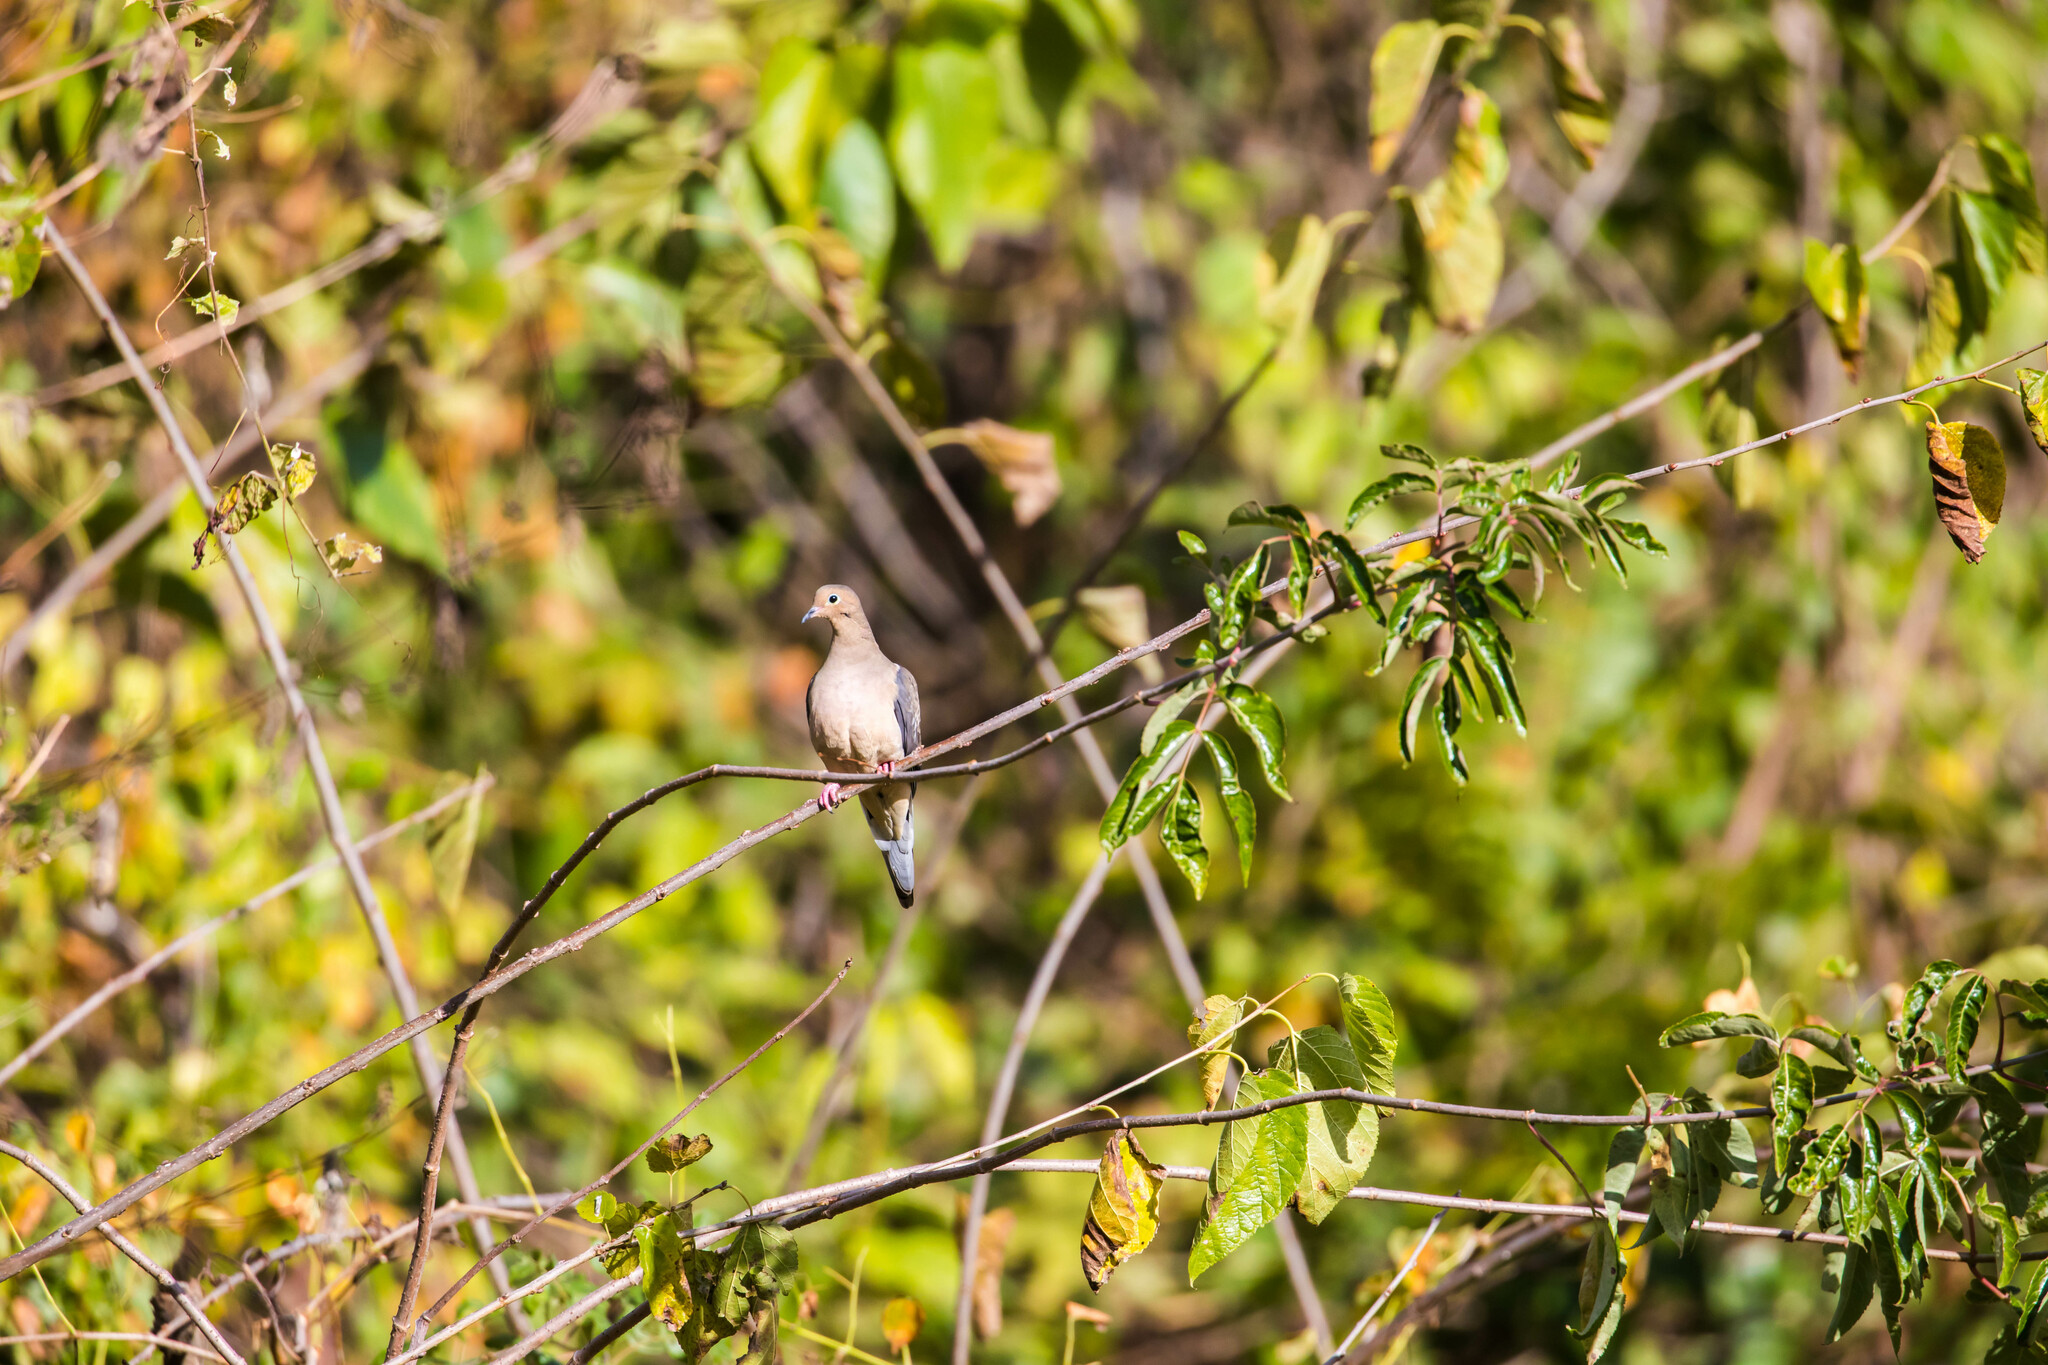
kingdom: Animalia
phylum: Chordata
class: Aves
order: Columbiformes
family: Columbidae
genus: Zenaida
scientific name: Zenaida macroura
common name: Mourning dove
